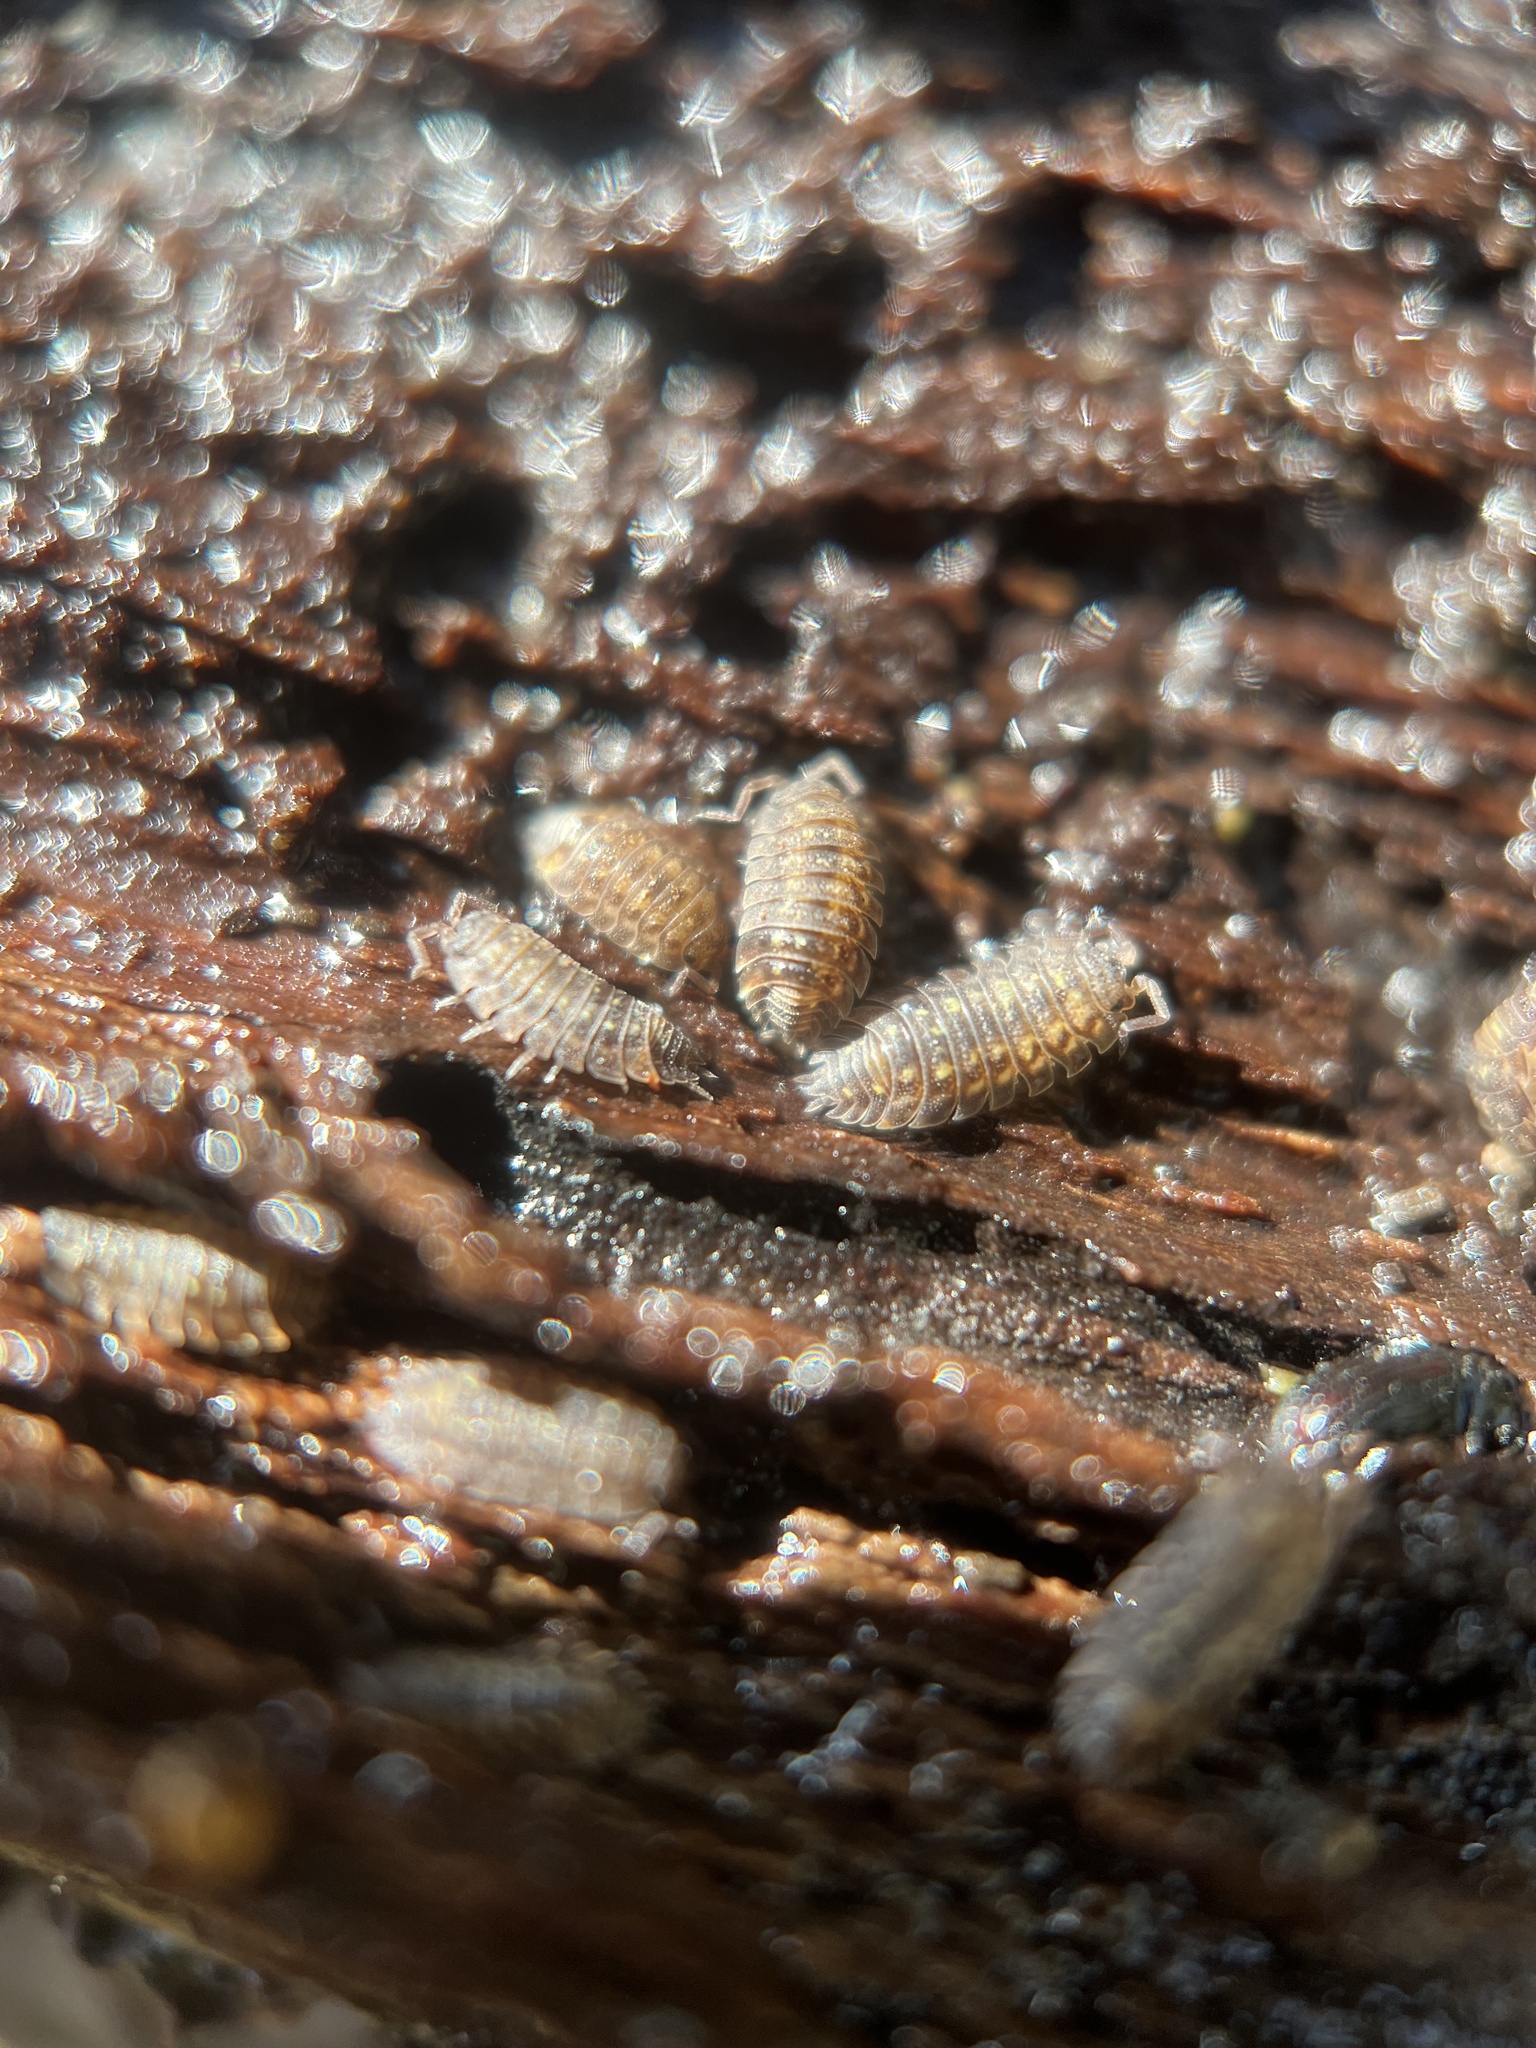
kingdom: Animalia
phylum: Arthropoda
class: Malacostraca
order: Isopoda
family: Oniscidae
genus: Oniscus
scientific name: Oniscus asellus
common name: Common shiny woodlouse
